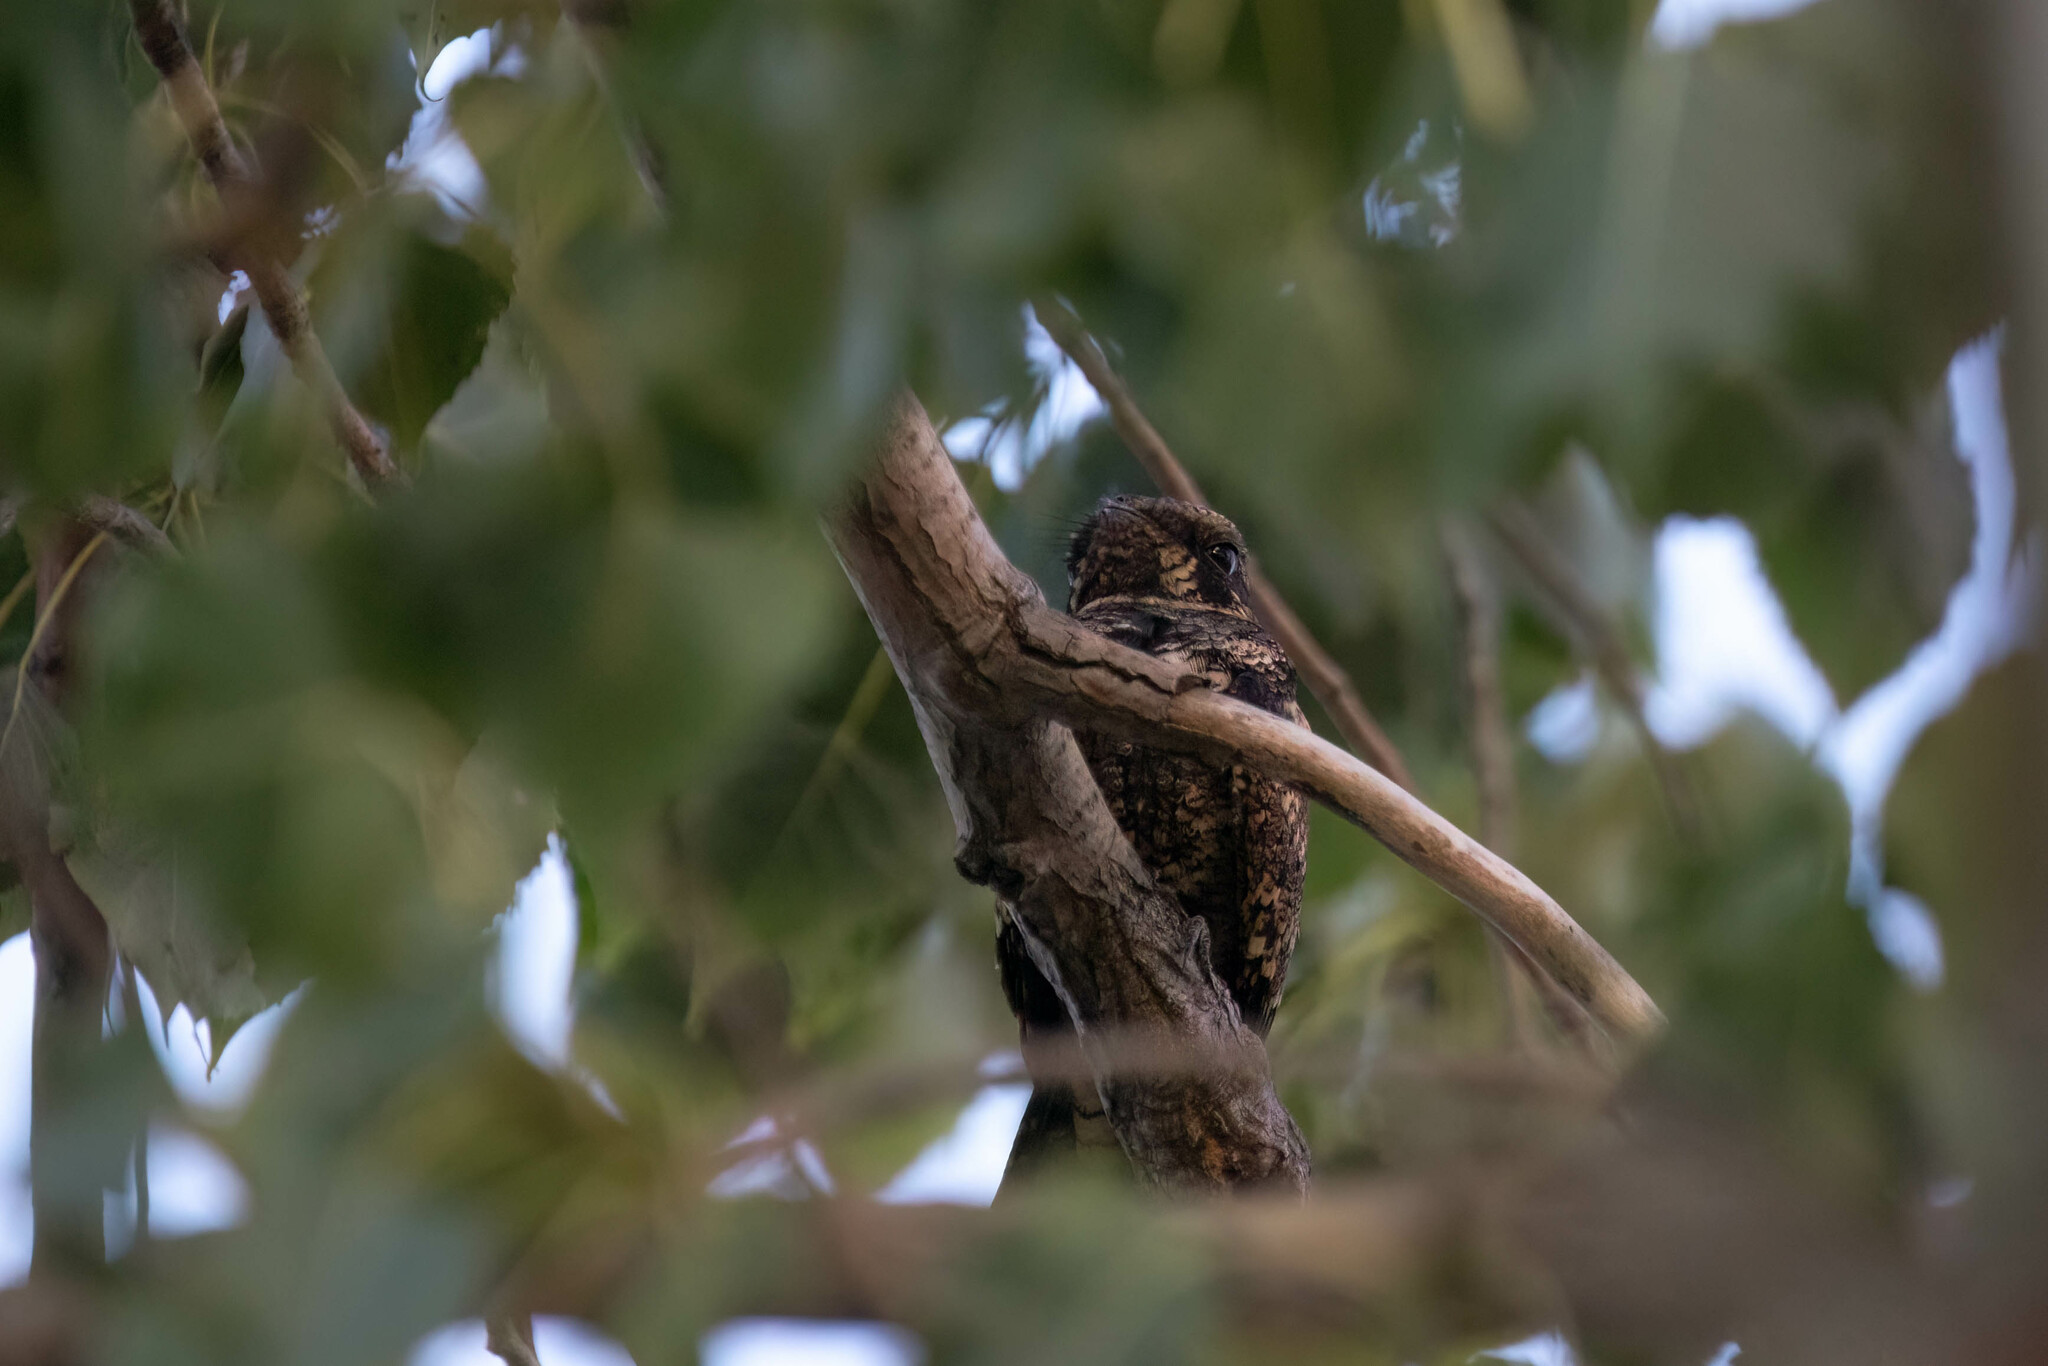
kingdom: Animalia
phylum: Chordata
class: Aves
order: Caprimulgiformes
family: Caprimulgidae
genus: Antrostomus
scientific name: Antrostomus vociferus
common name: Eastern whip-poor-will
